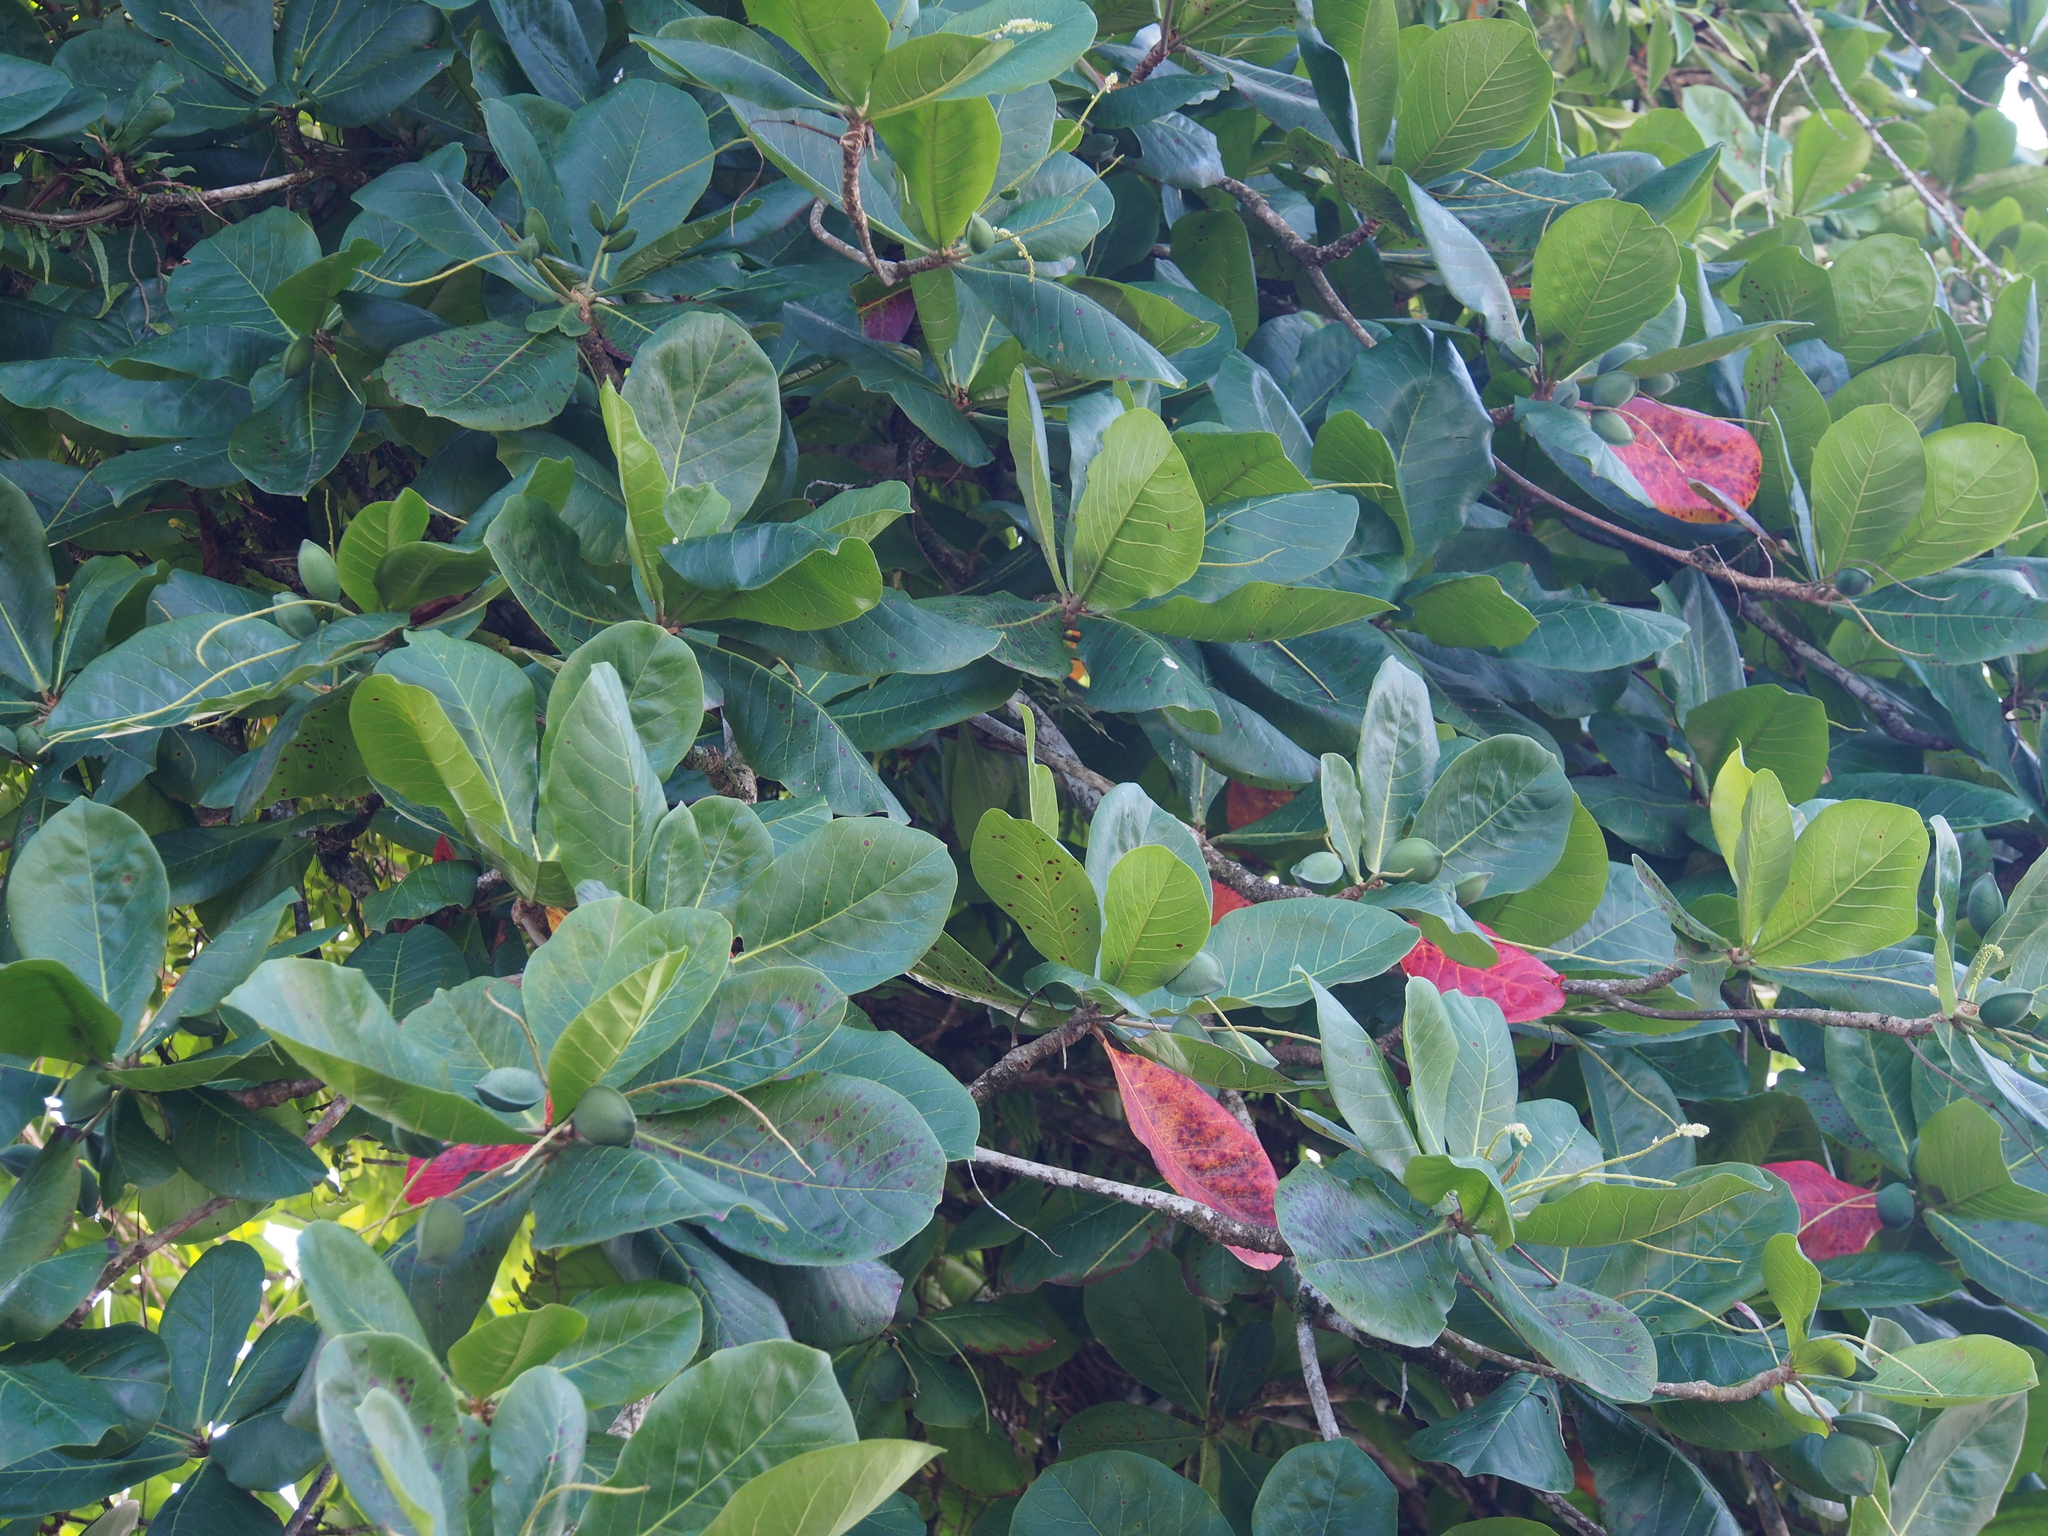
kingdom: Plantae
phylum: Tracheophyta
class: Magnoliopsida
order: Myrtales
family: Combretaceae
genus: Terminalia
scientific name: Terminalia catappa
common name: Tropical almond
